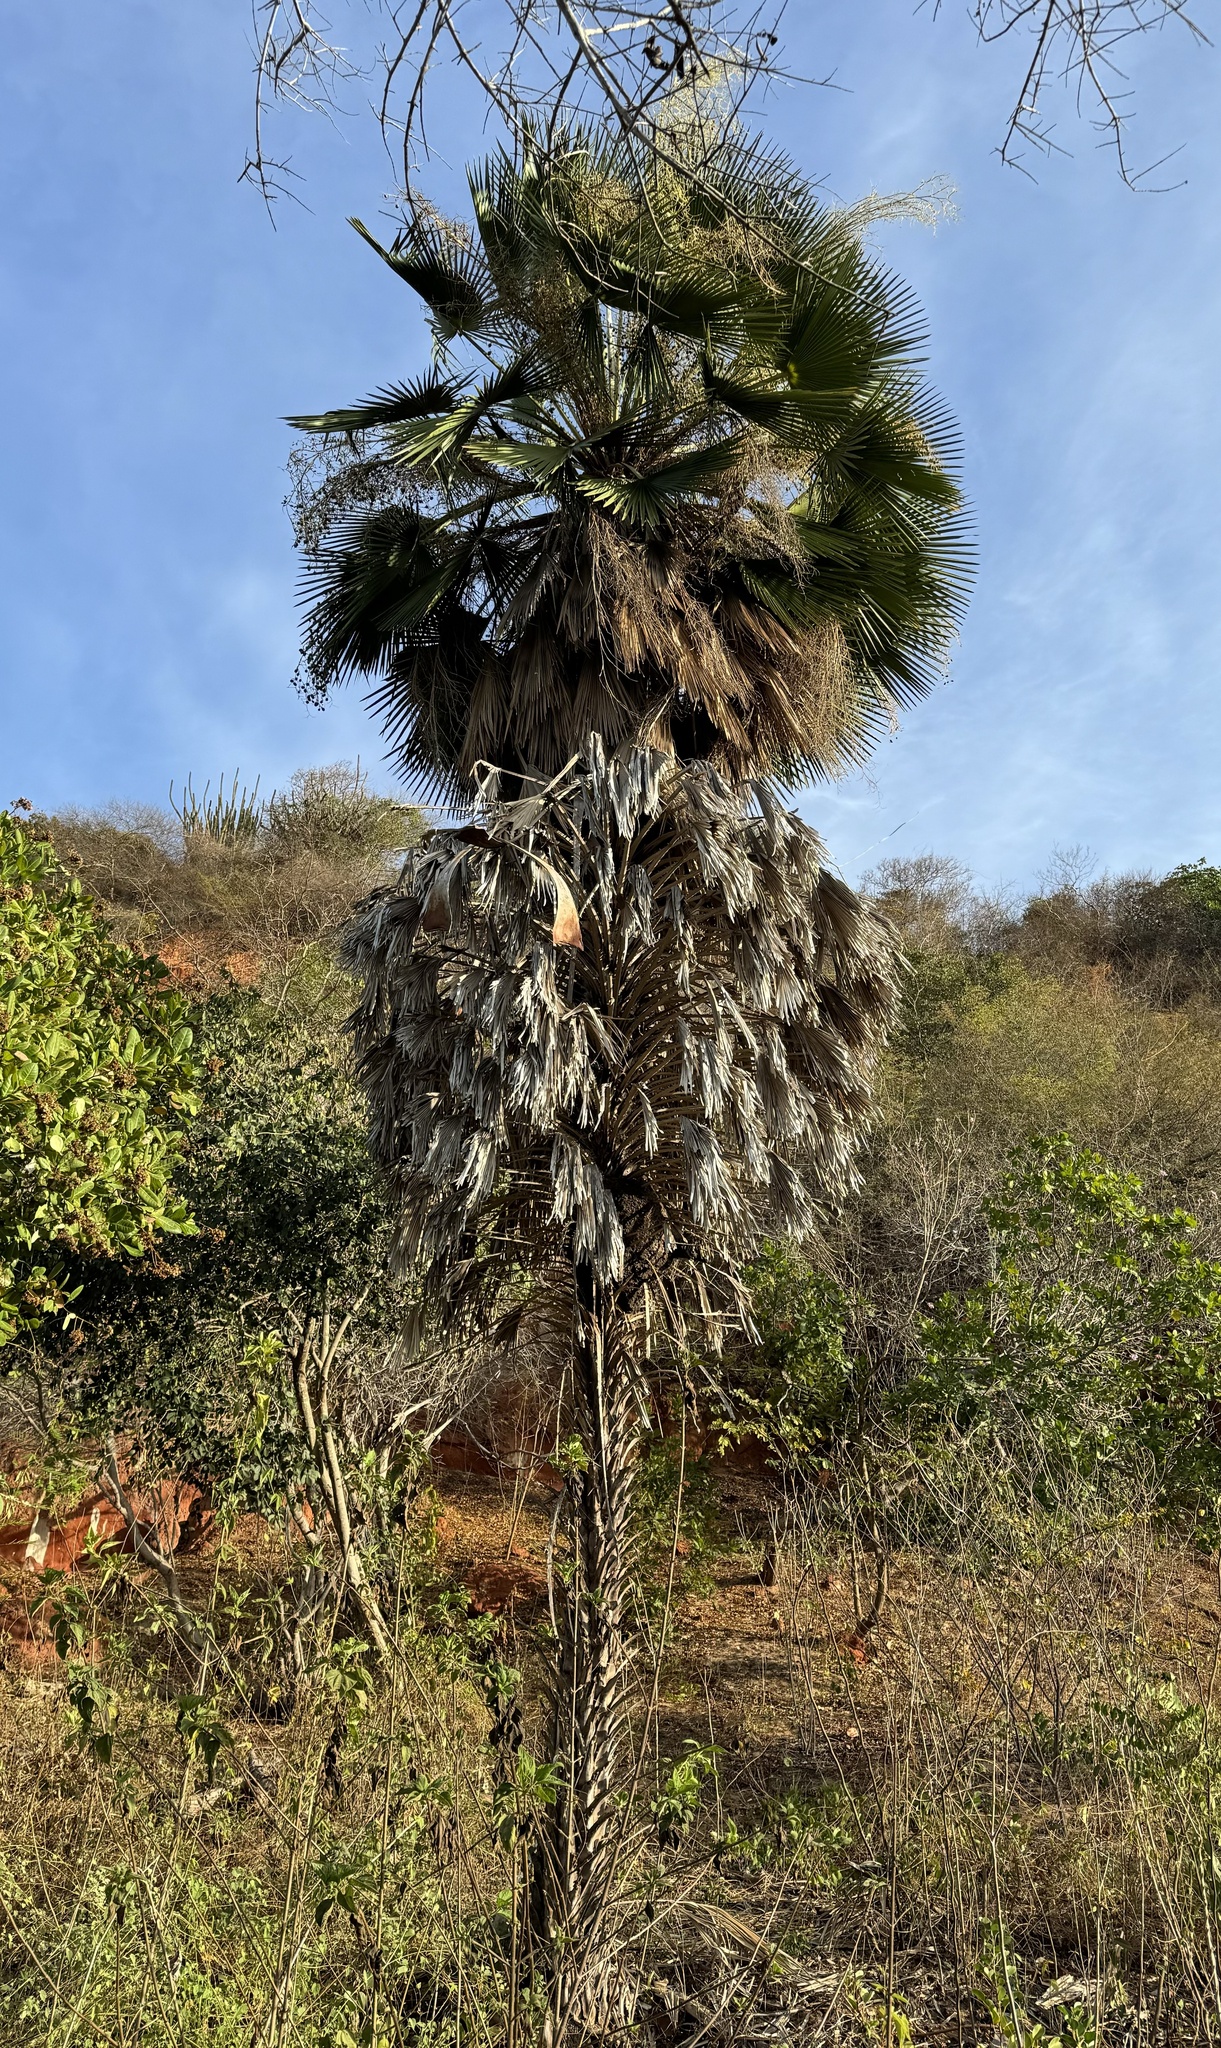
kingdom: Plantae
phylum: Tracheophyta
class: Liliopsida
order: Arecales
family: Arecaceae
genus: Copernicia
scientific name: Copernicia prunifera
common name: Carnauba palm
